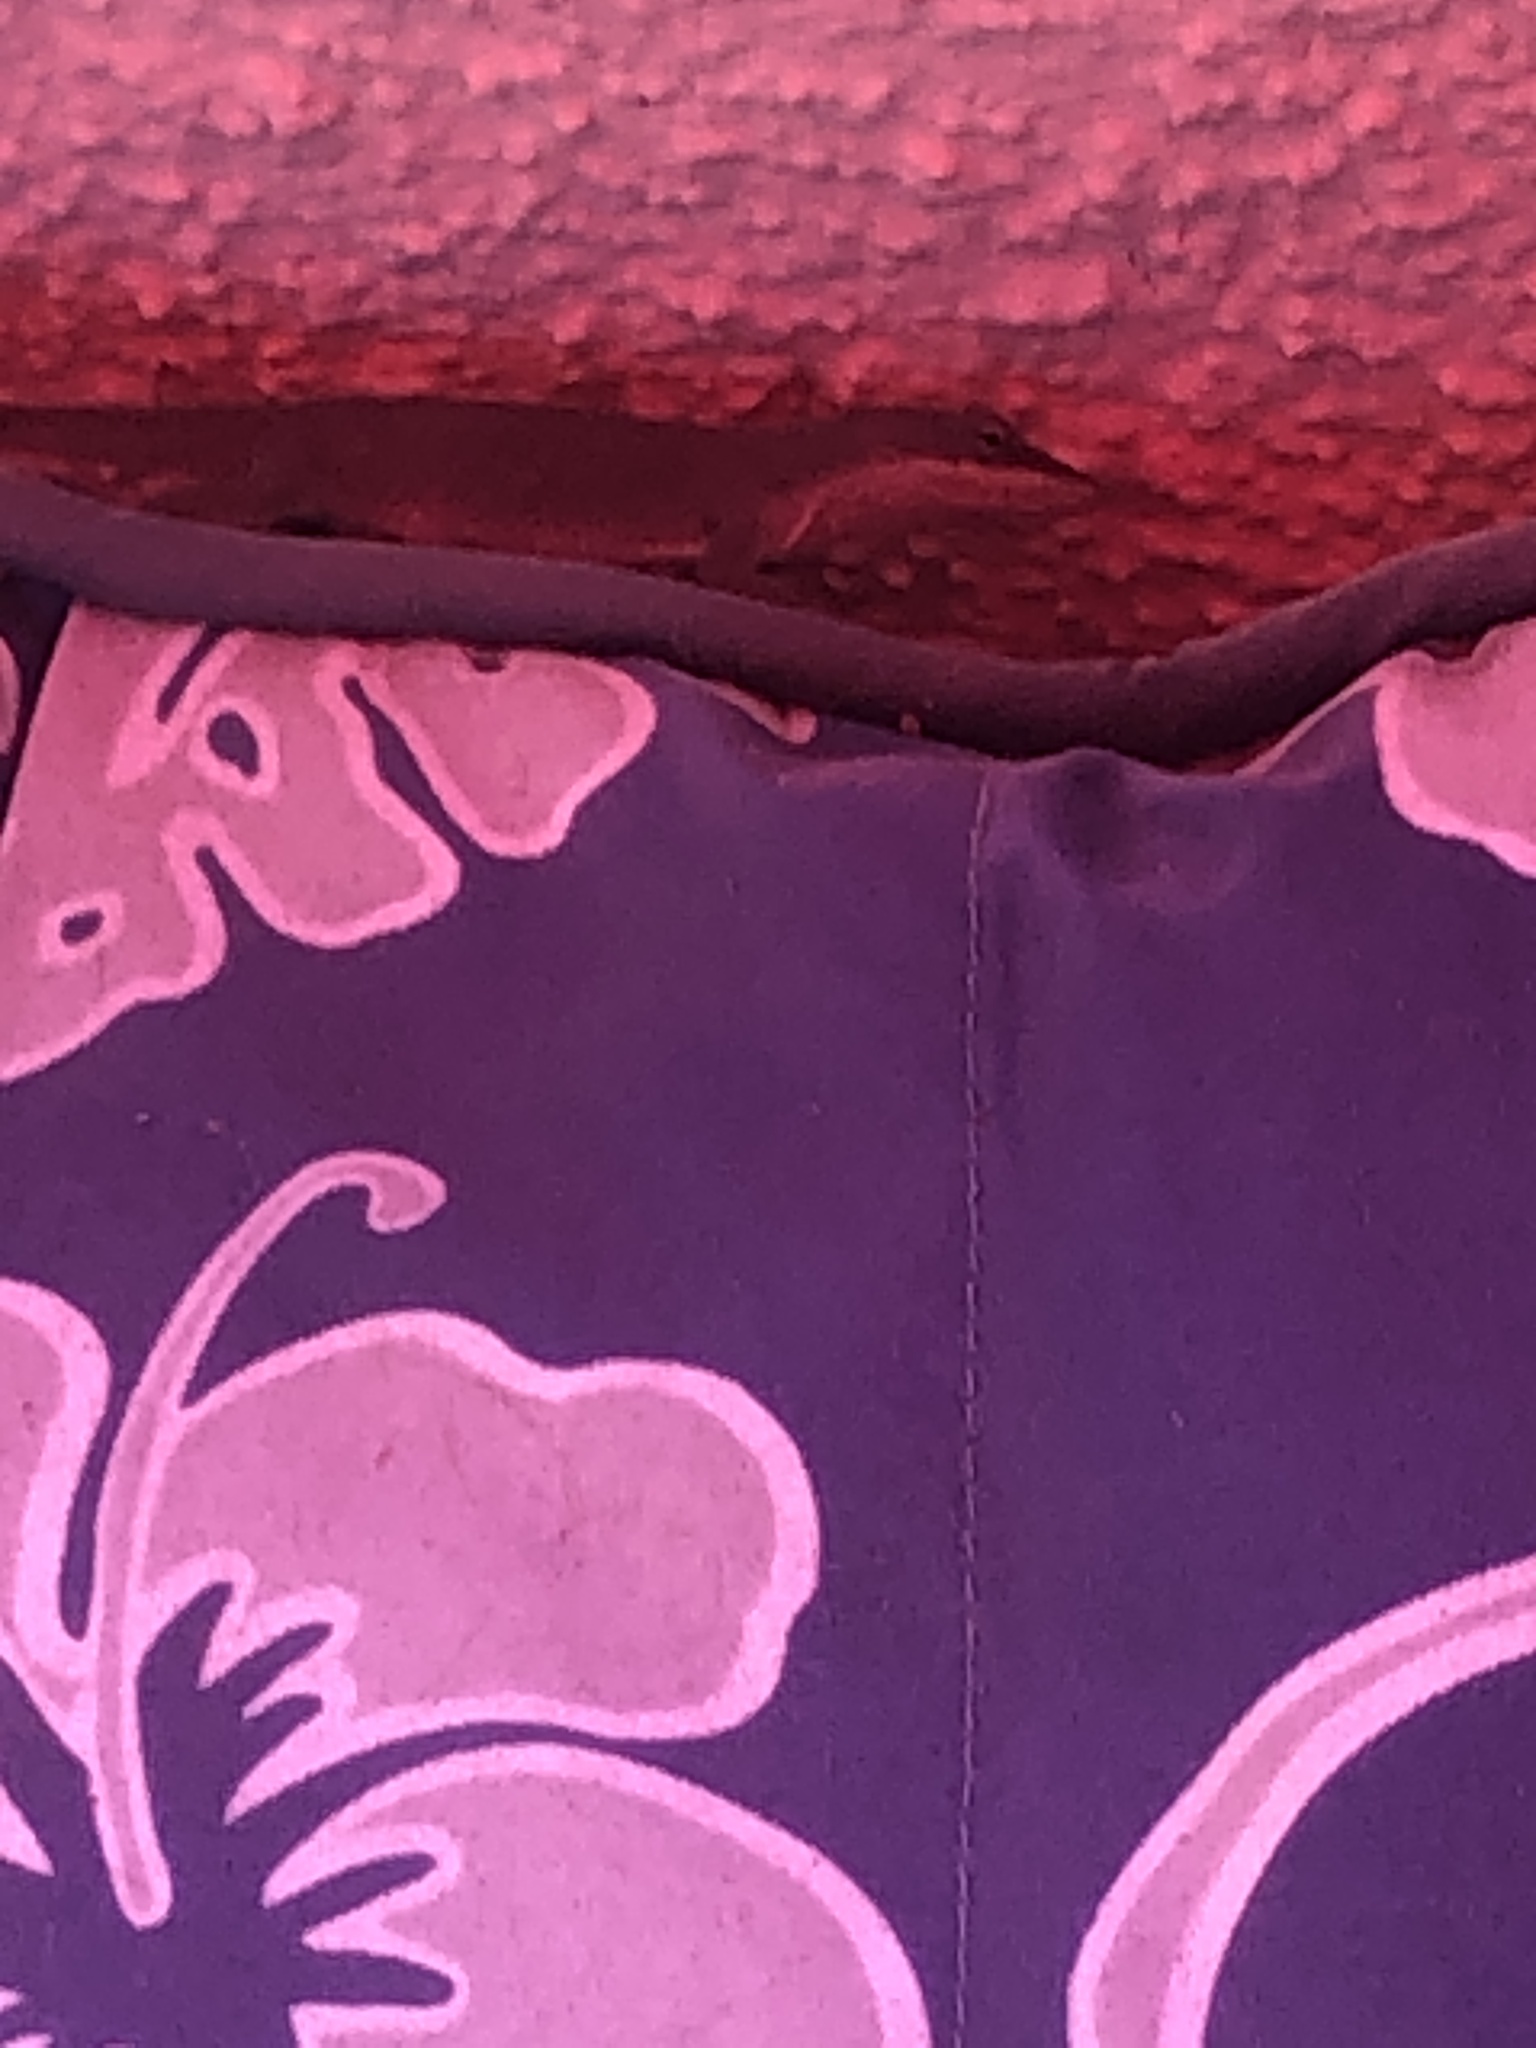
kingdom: Animalia
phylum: Chordata
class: Squamata
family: Dactyloidae
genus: Anolis
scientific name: Anolis carolinensis
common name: Green anole
